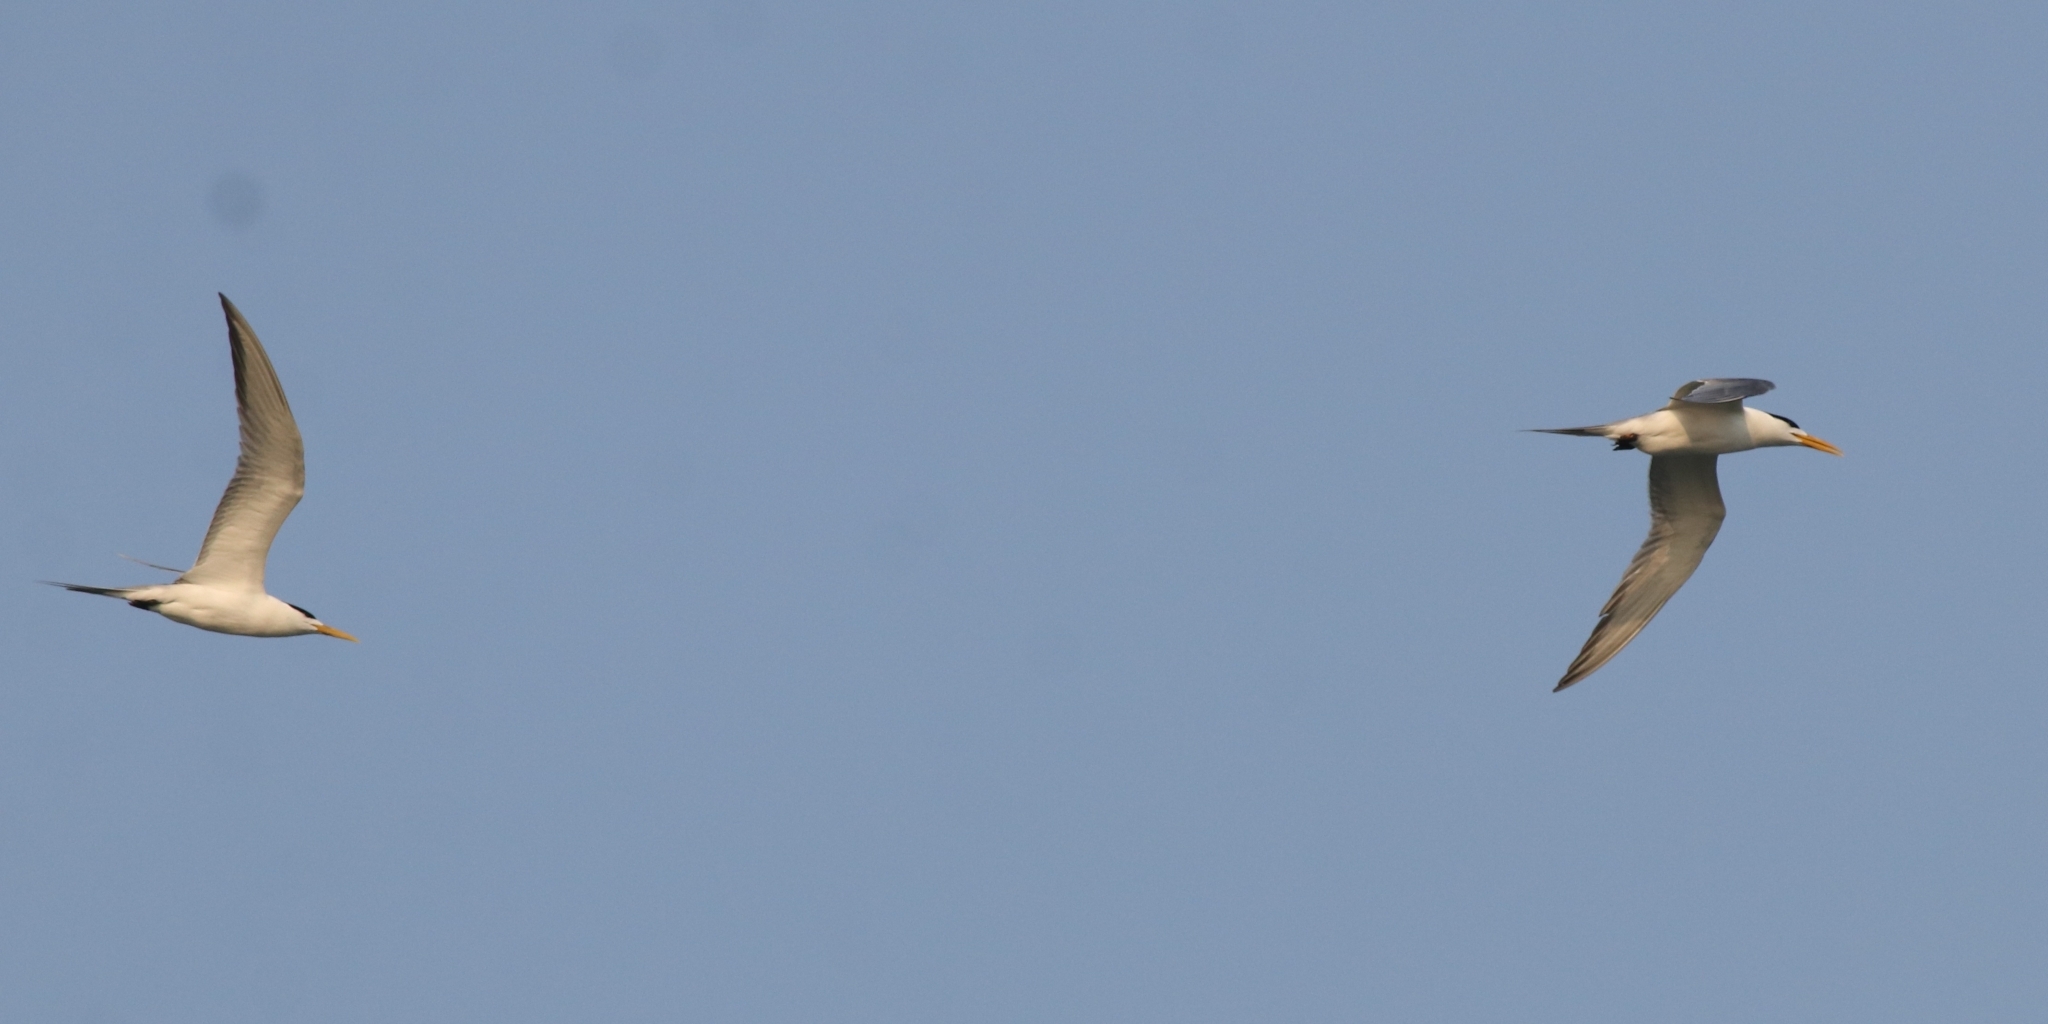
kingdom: Animalia
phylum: Chordata
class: Aves
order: Charadriiformes
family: Laridae
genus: Thalasseus
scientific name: Thalasseus bergii
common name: Greater crested tern
